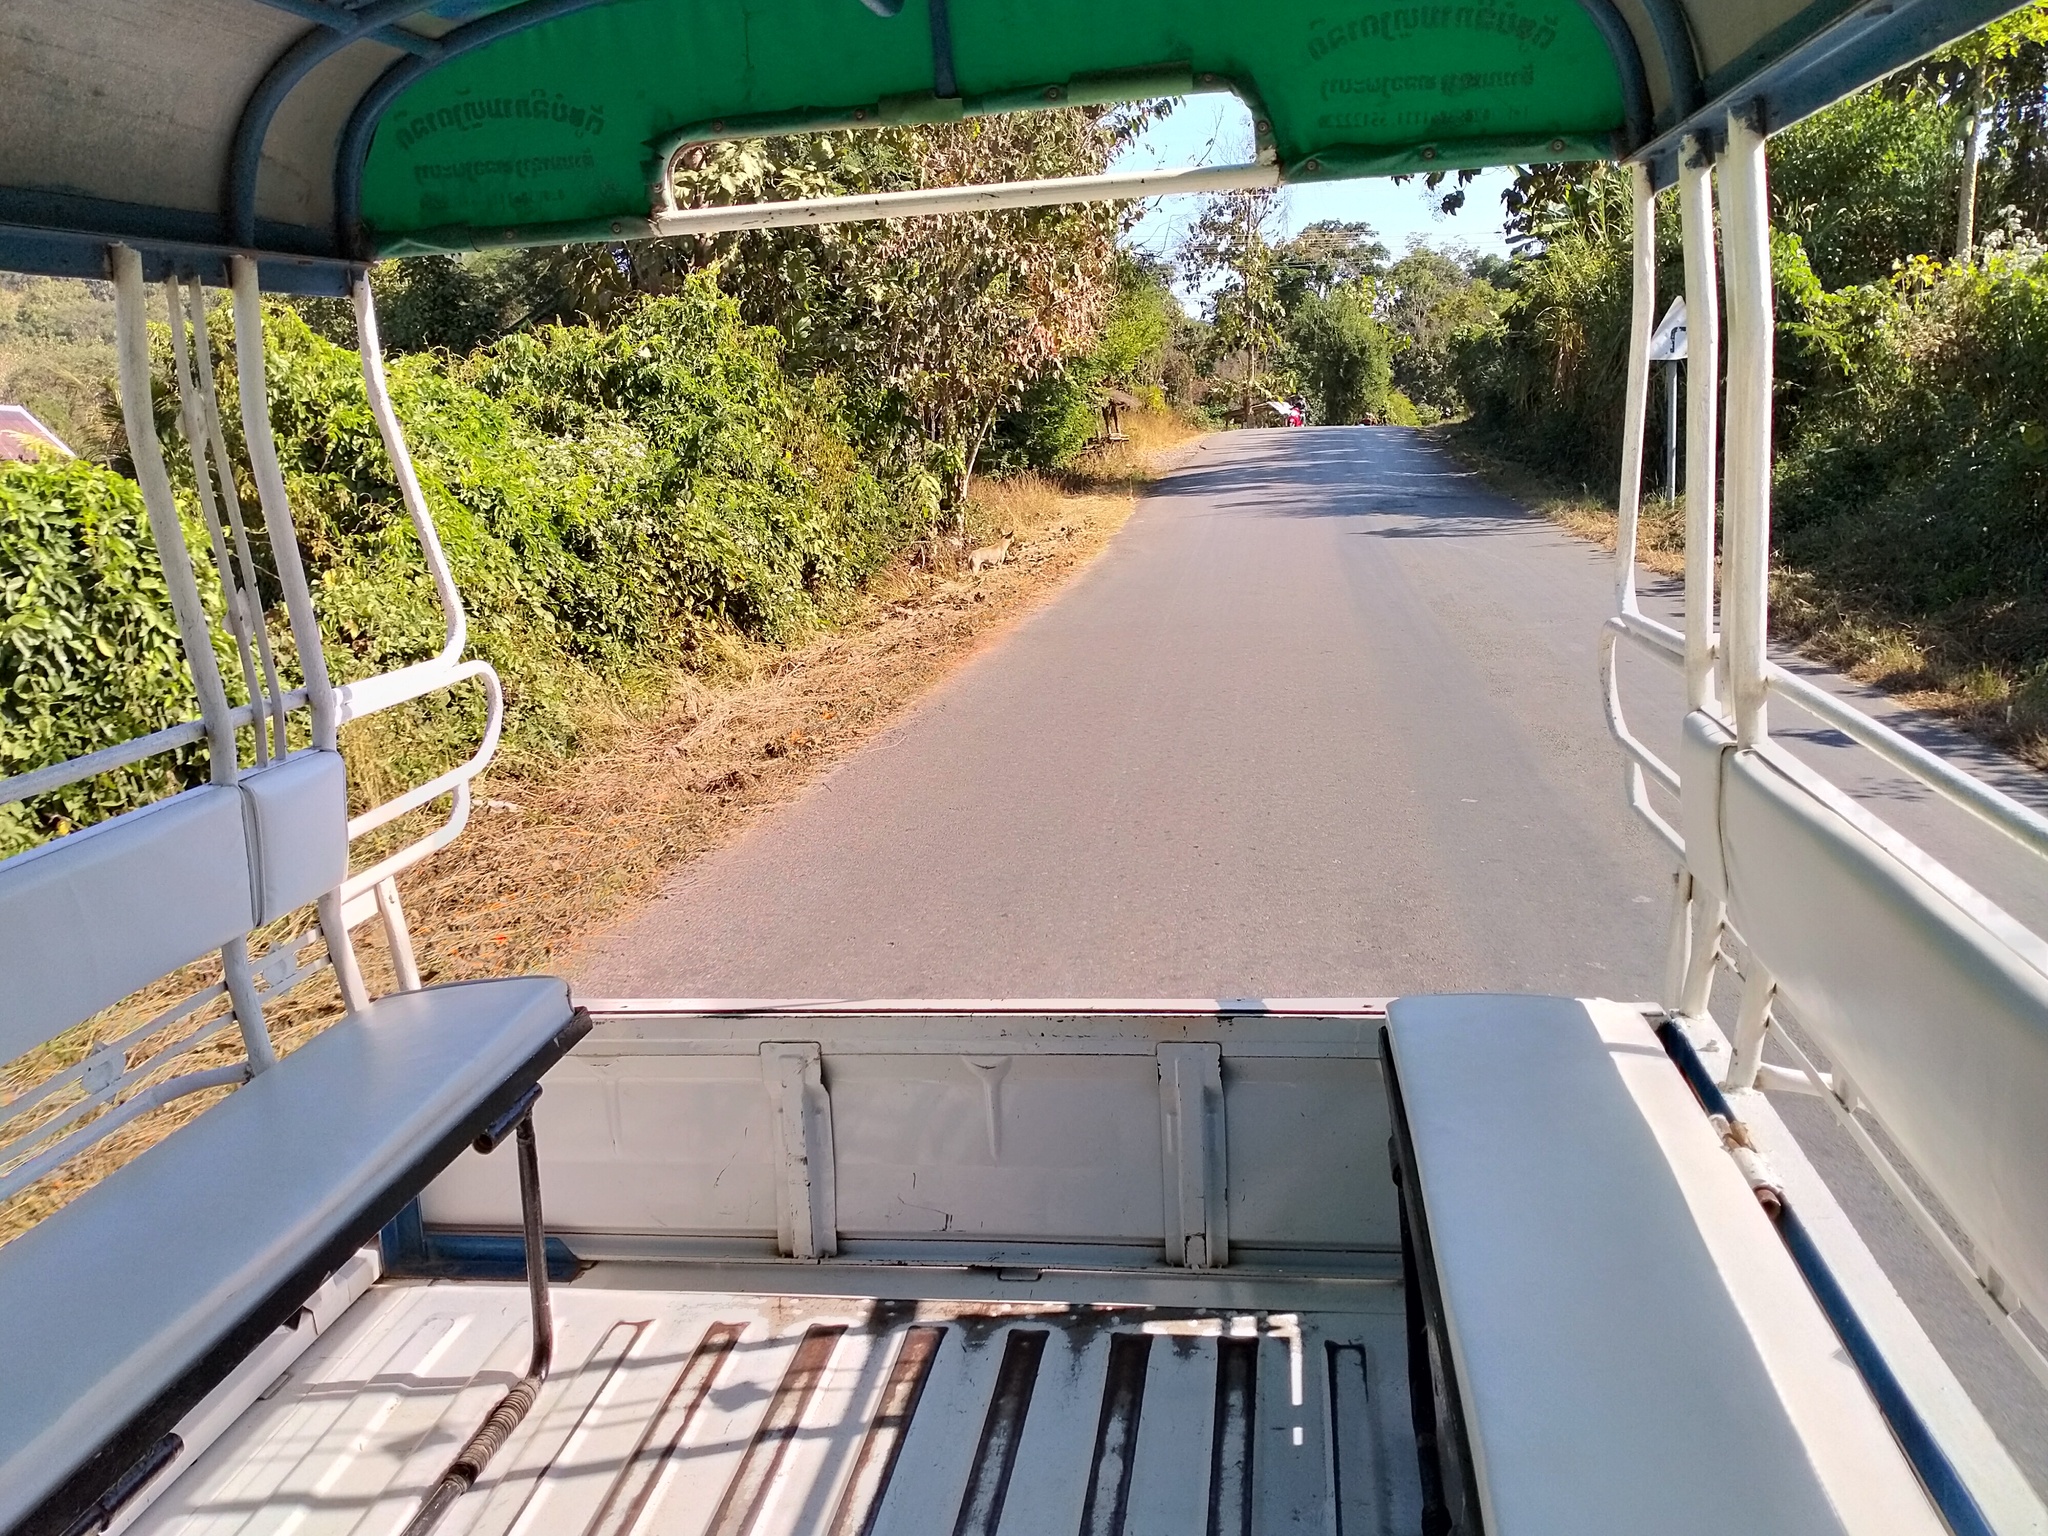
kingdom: Animalia
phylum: Chordata
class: Mammalia
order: Carnivora
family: Canidae
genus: Canis
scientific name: Canis lupus
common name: Gray wolf
